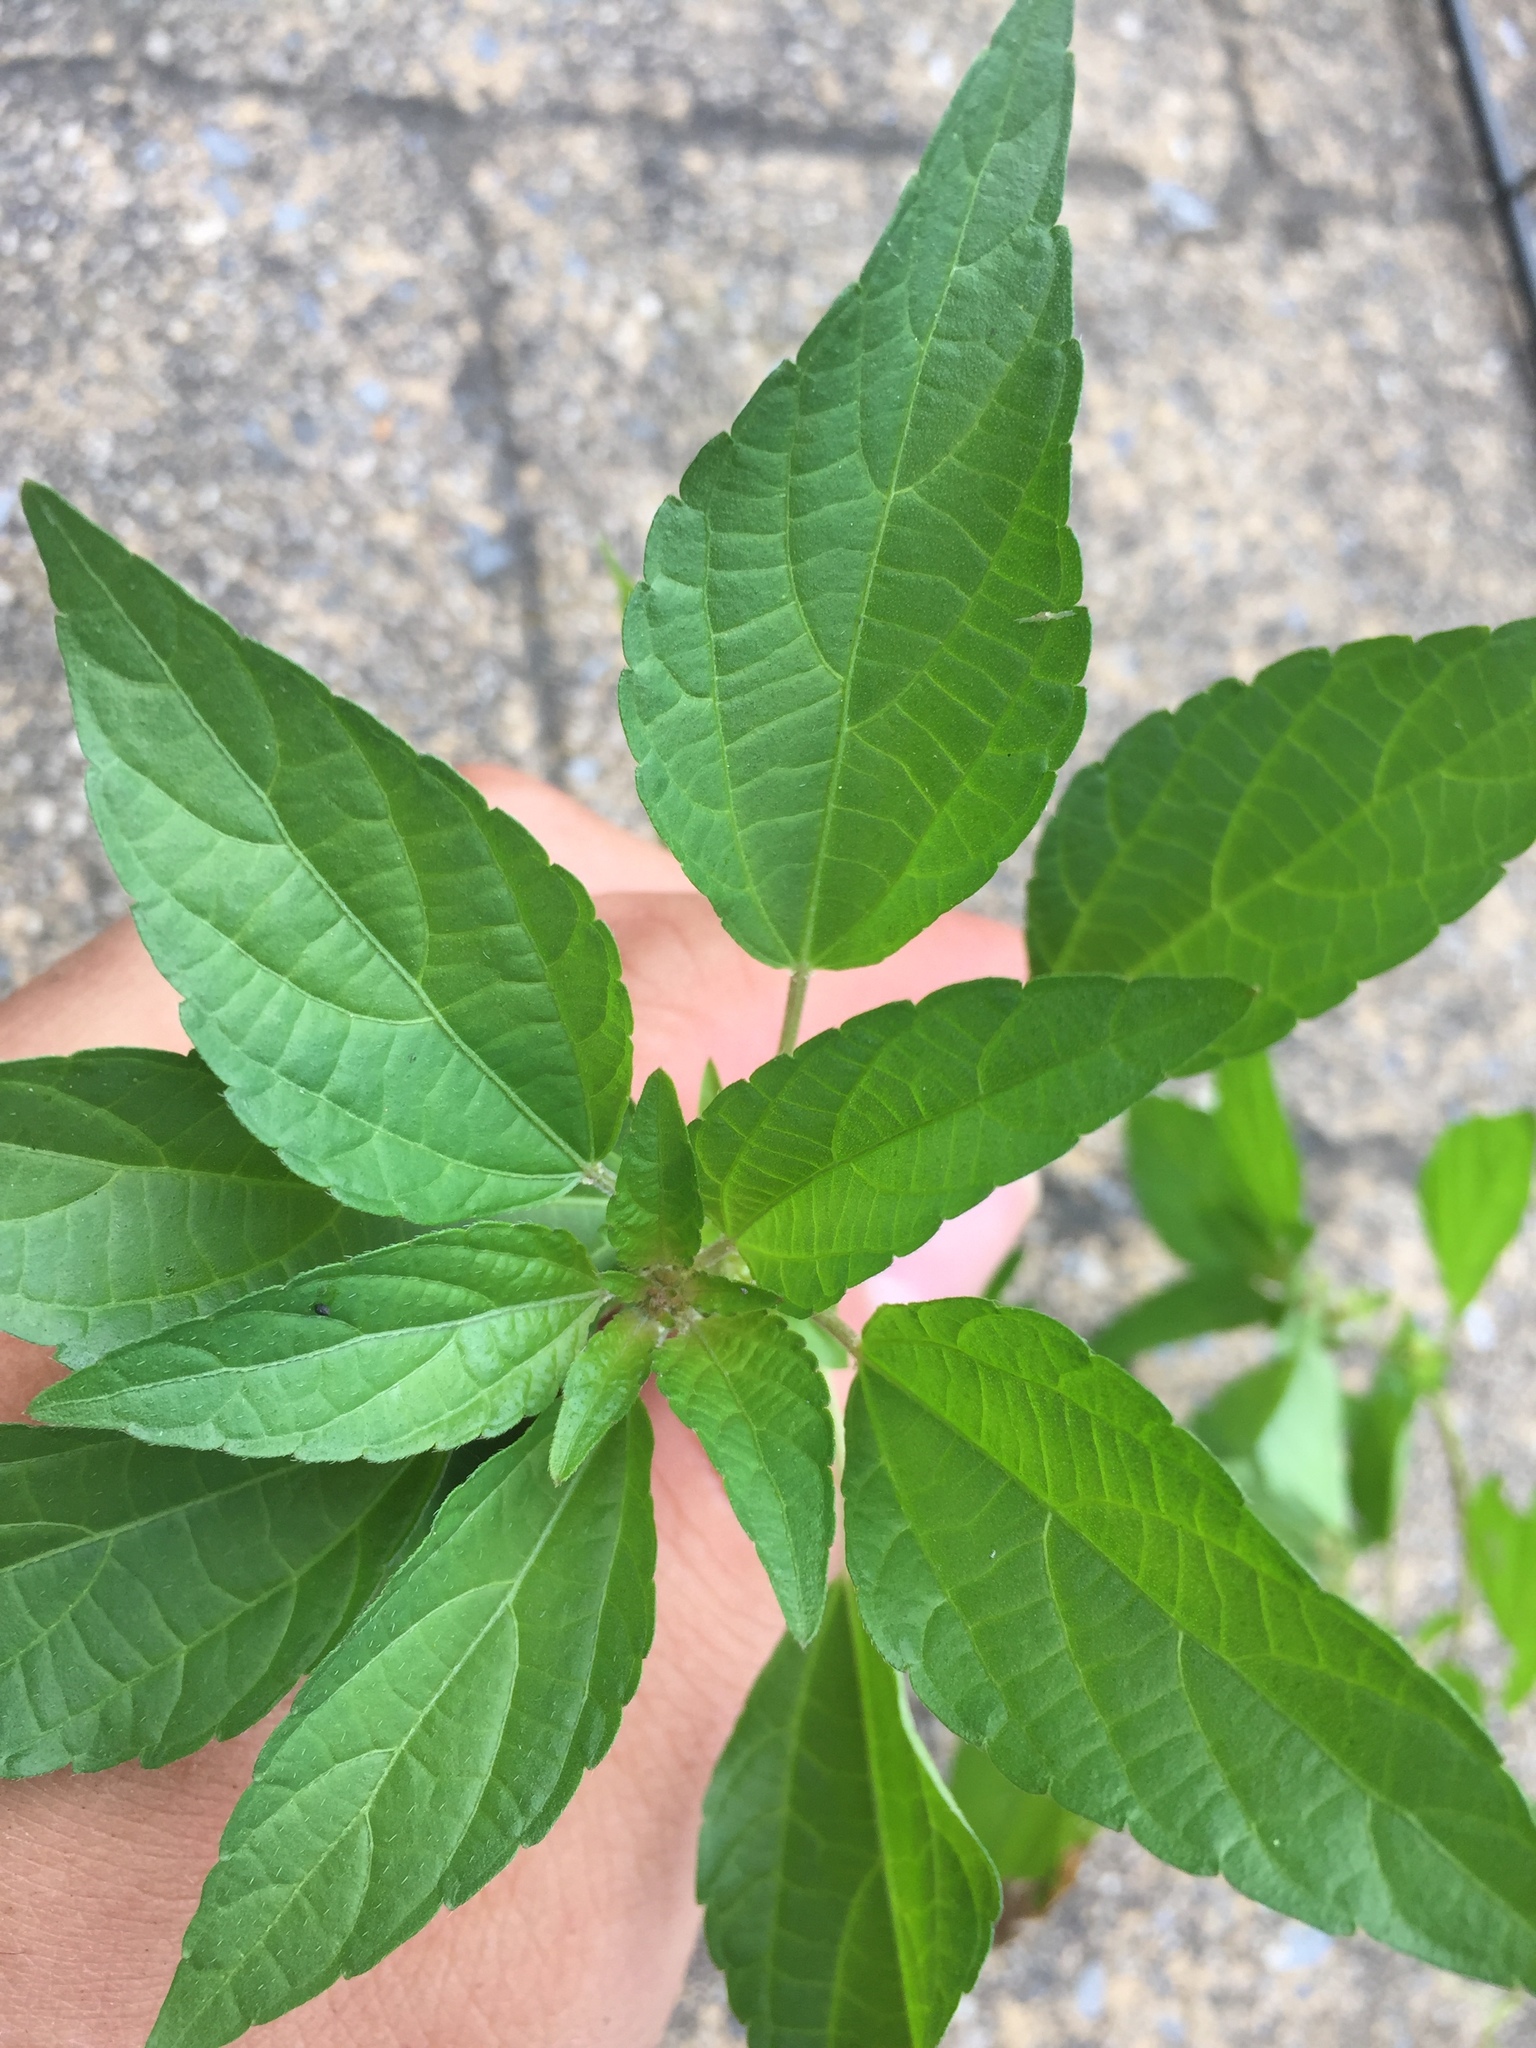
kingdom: Plantae
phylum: Tracheophyta
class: Magnoliopsida
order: Malpighiales
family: Euphorbiaceae
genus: Acalypha
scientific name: Acalypha rhomboidea
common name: Rhombic copperleaf
